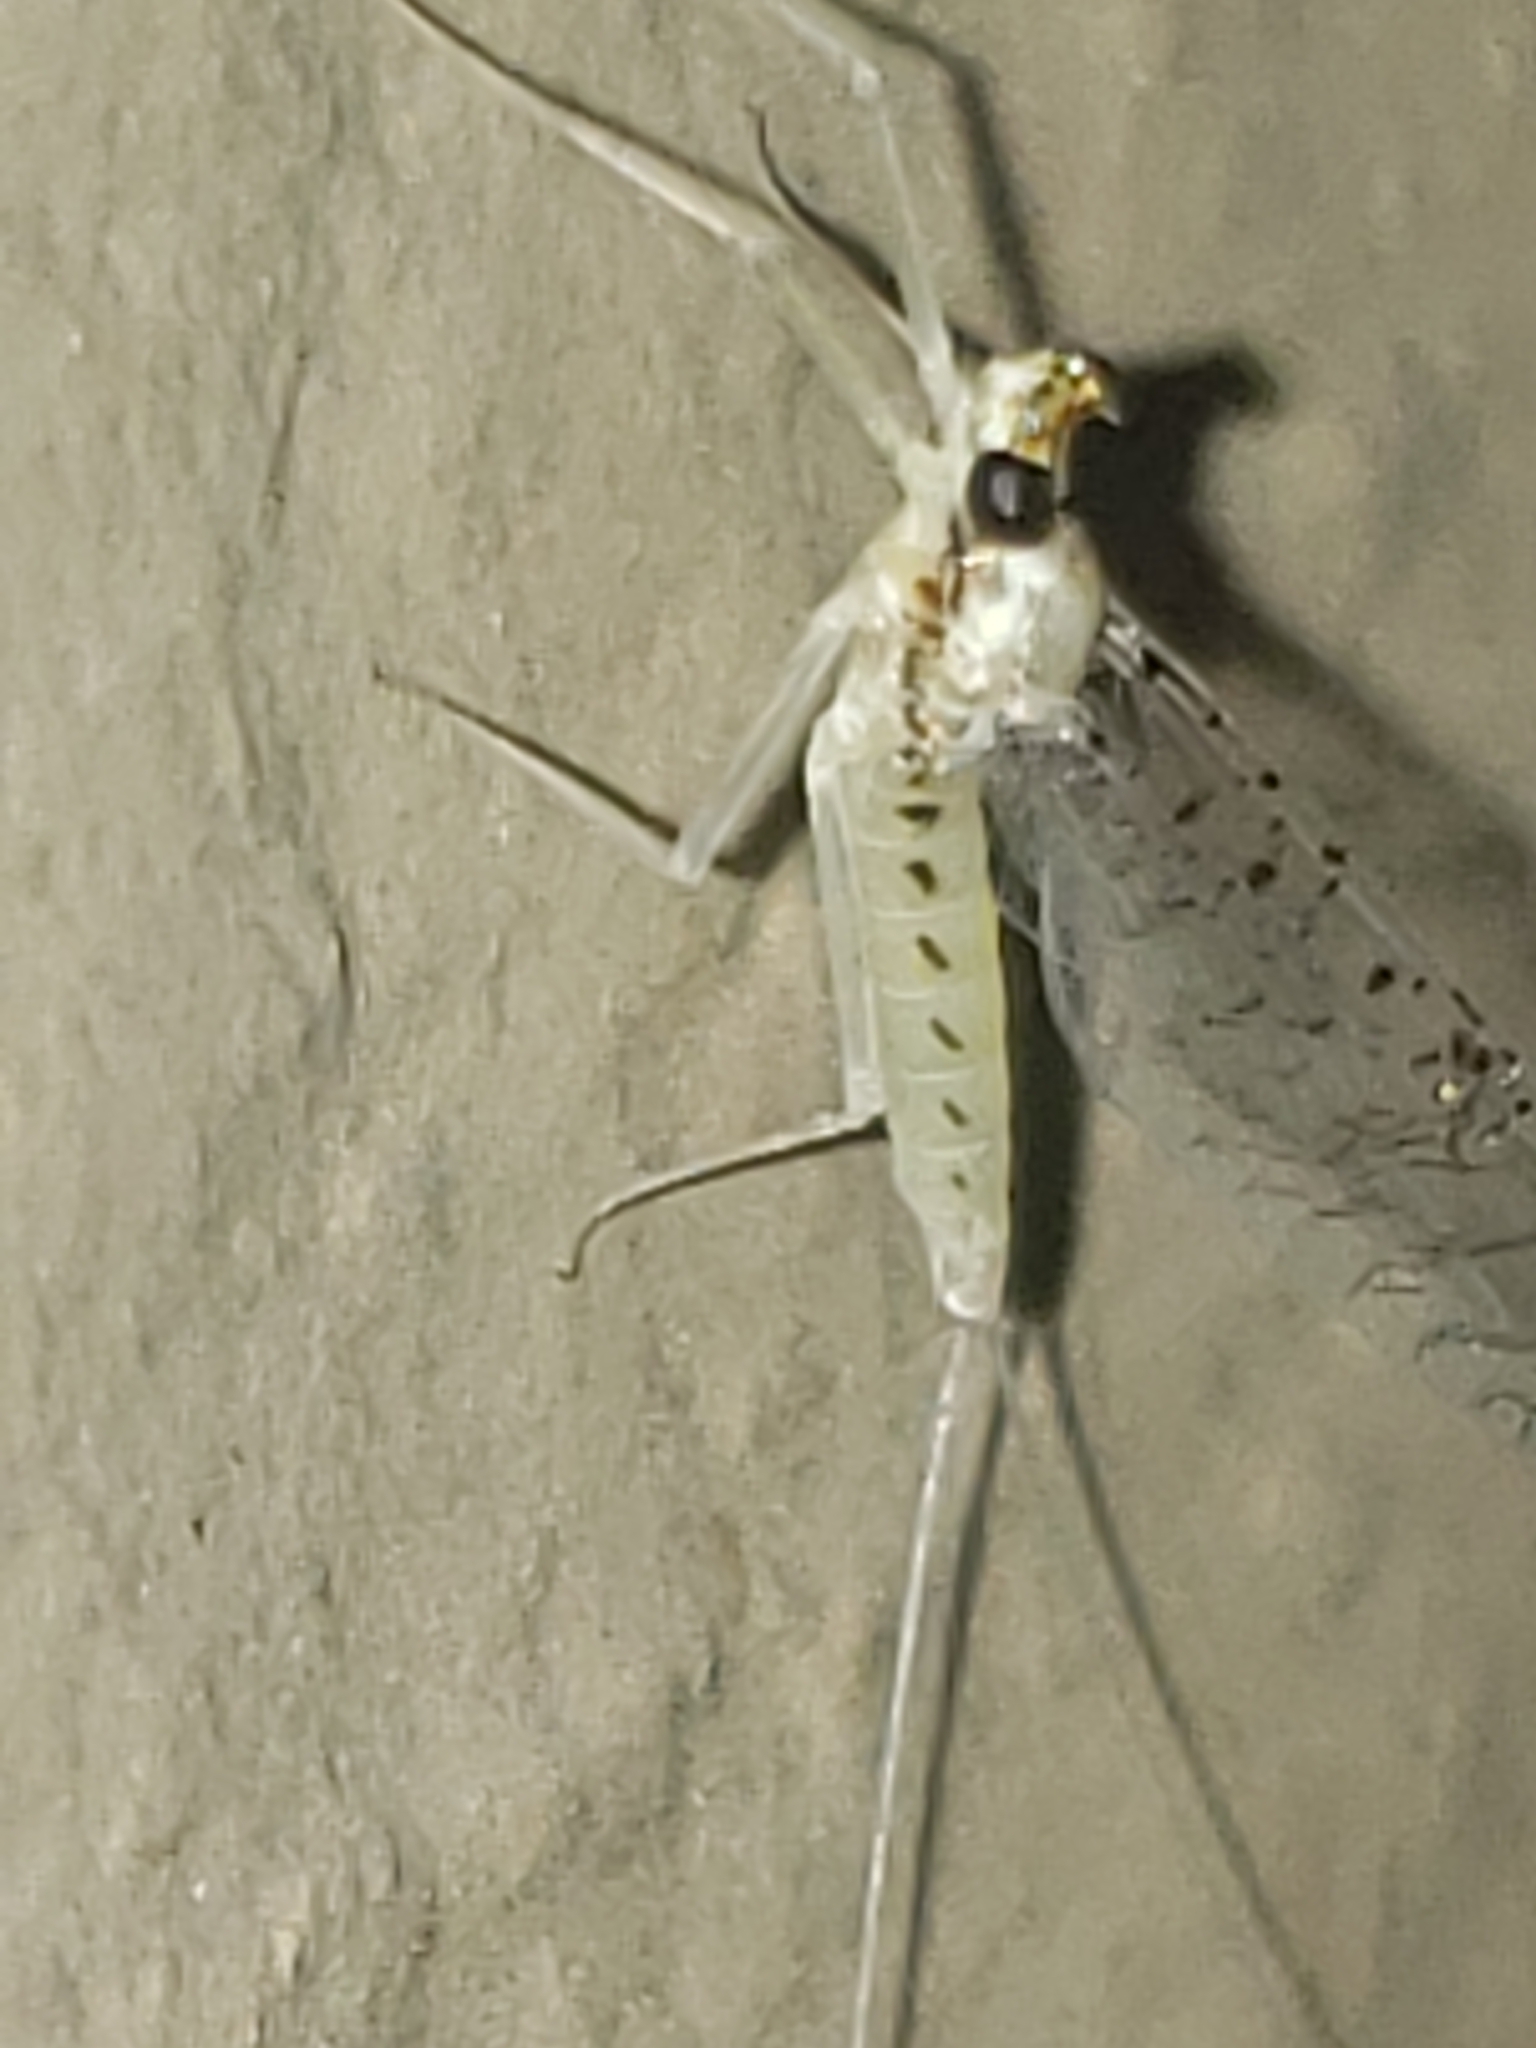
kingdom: Animalia
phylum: Arthropoda
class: Insecta
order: Ephemeroptera
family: Heptageniidae
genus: Leucrocuta
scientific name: Leucrocuta hebe
